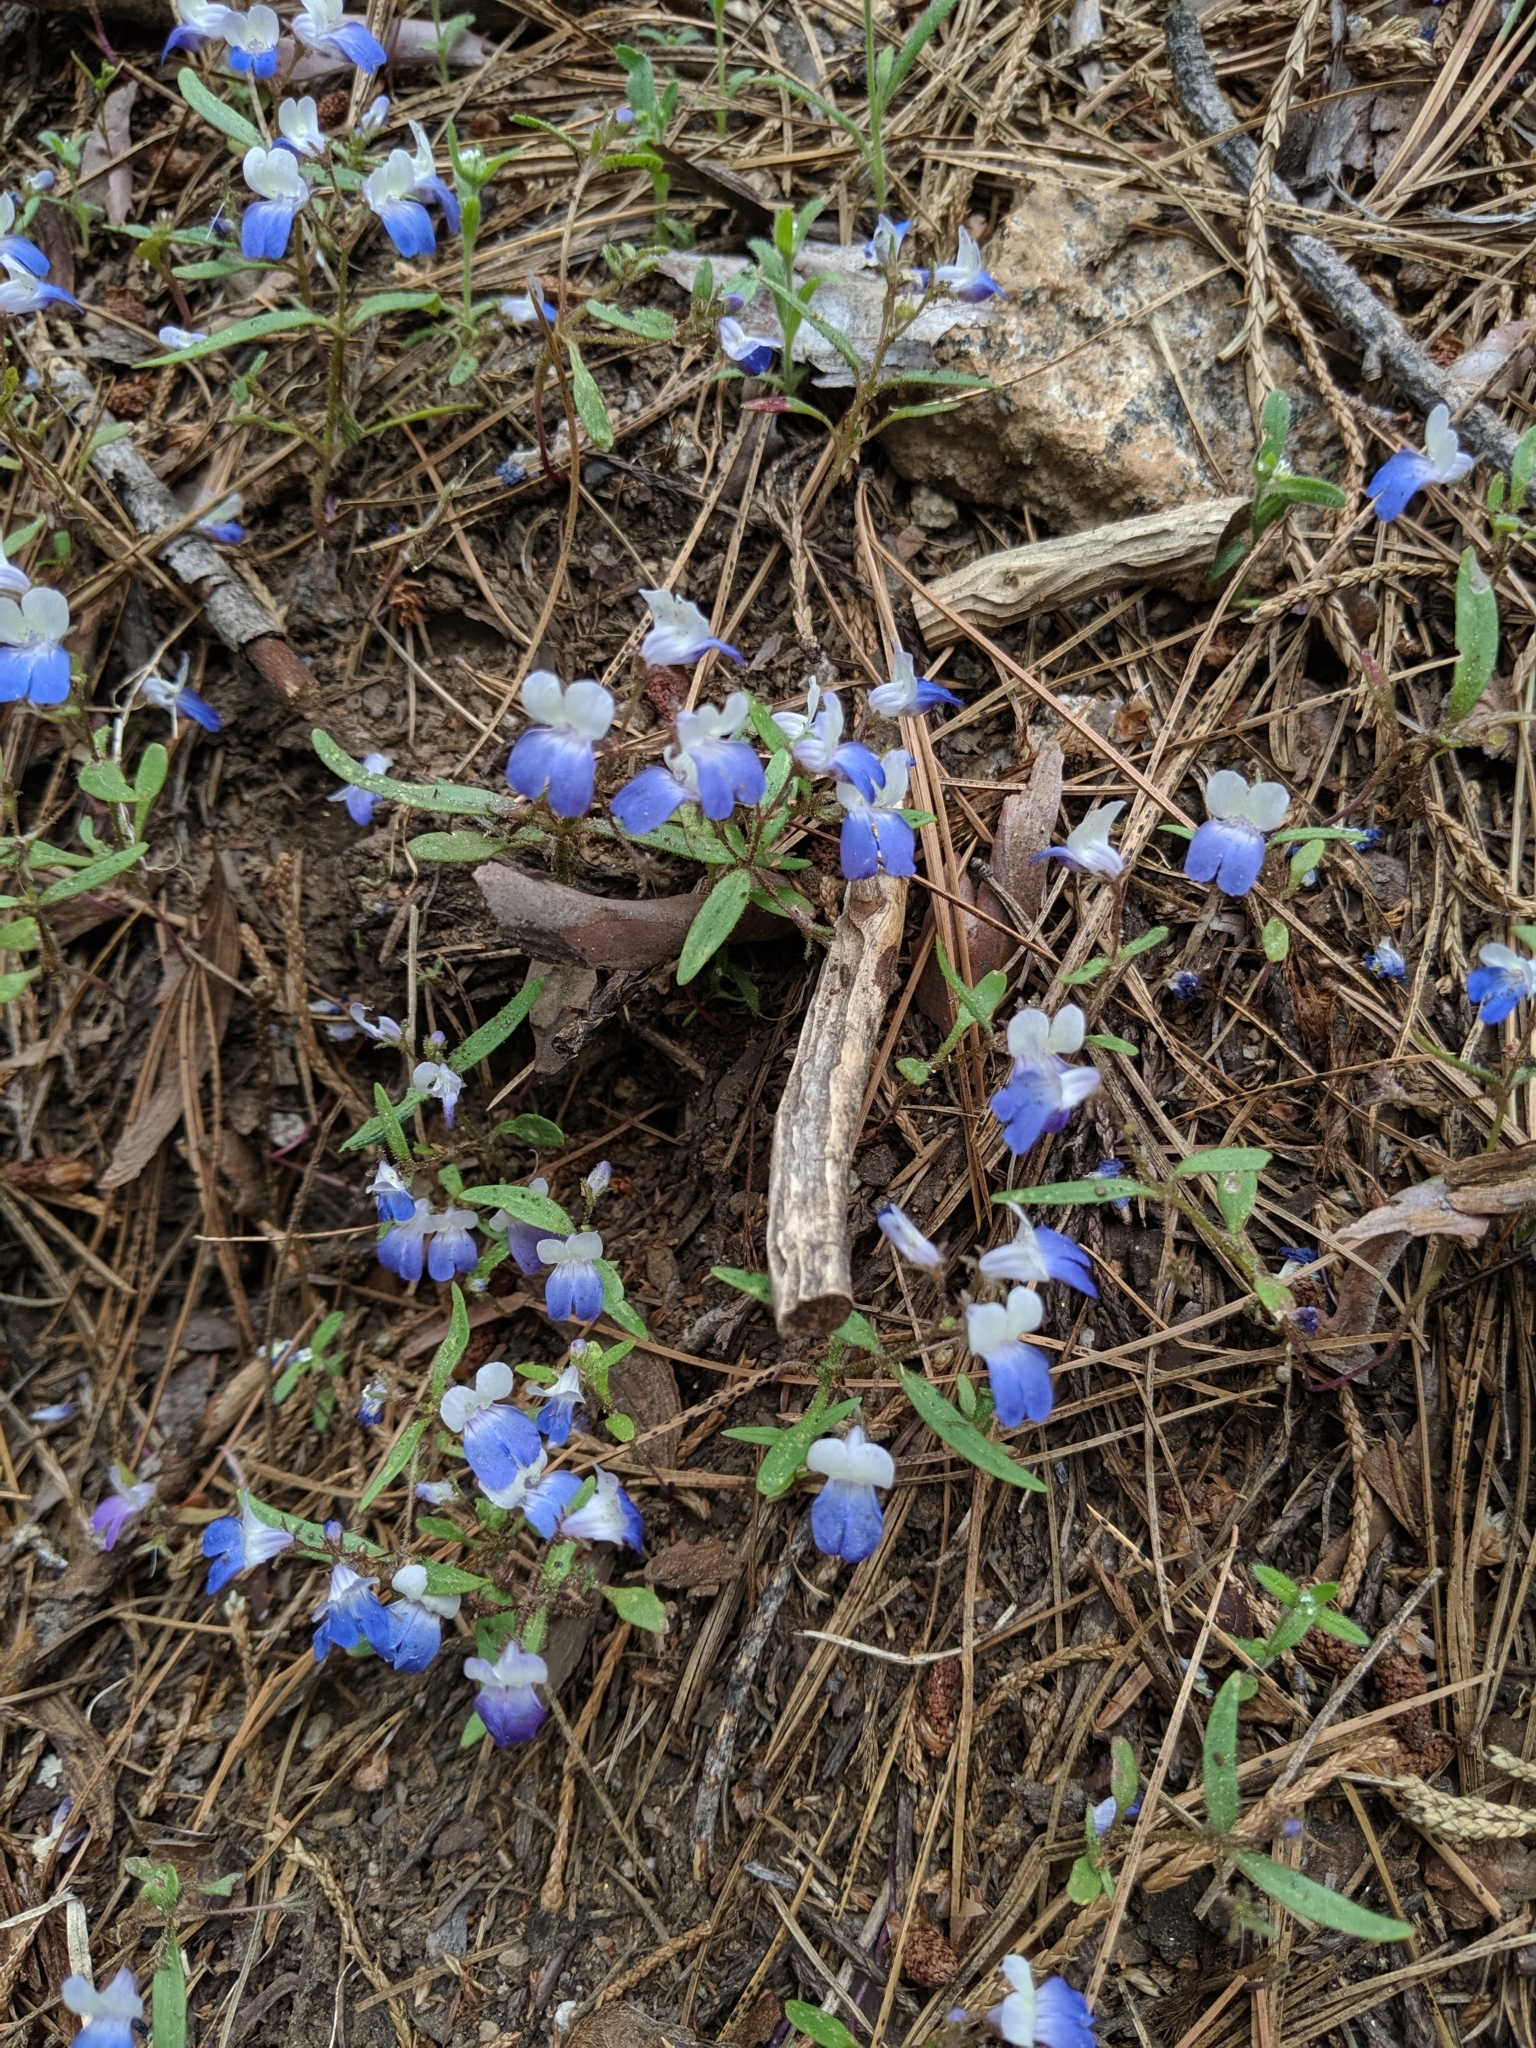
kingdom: Plantae
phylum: Tracheophyta
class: Magnoliopsida
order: Lamiales
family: Plantaginaceae
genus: Collinsia
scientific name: Collinsia torreyi
